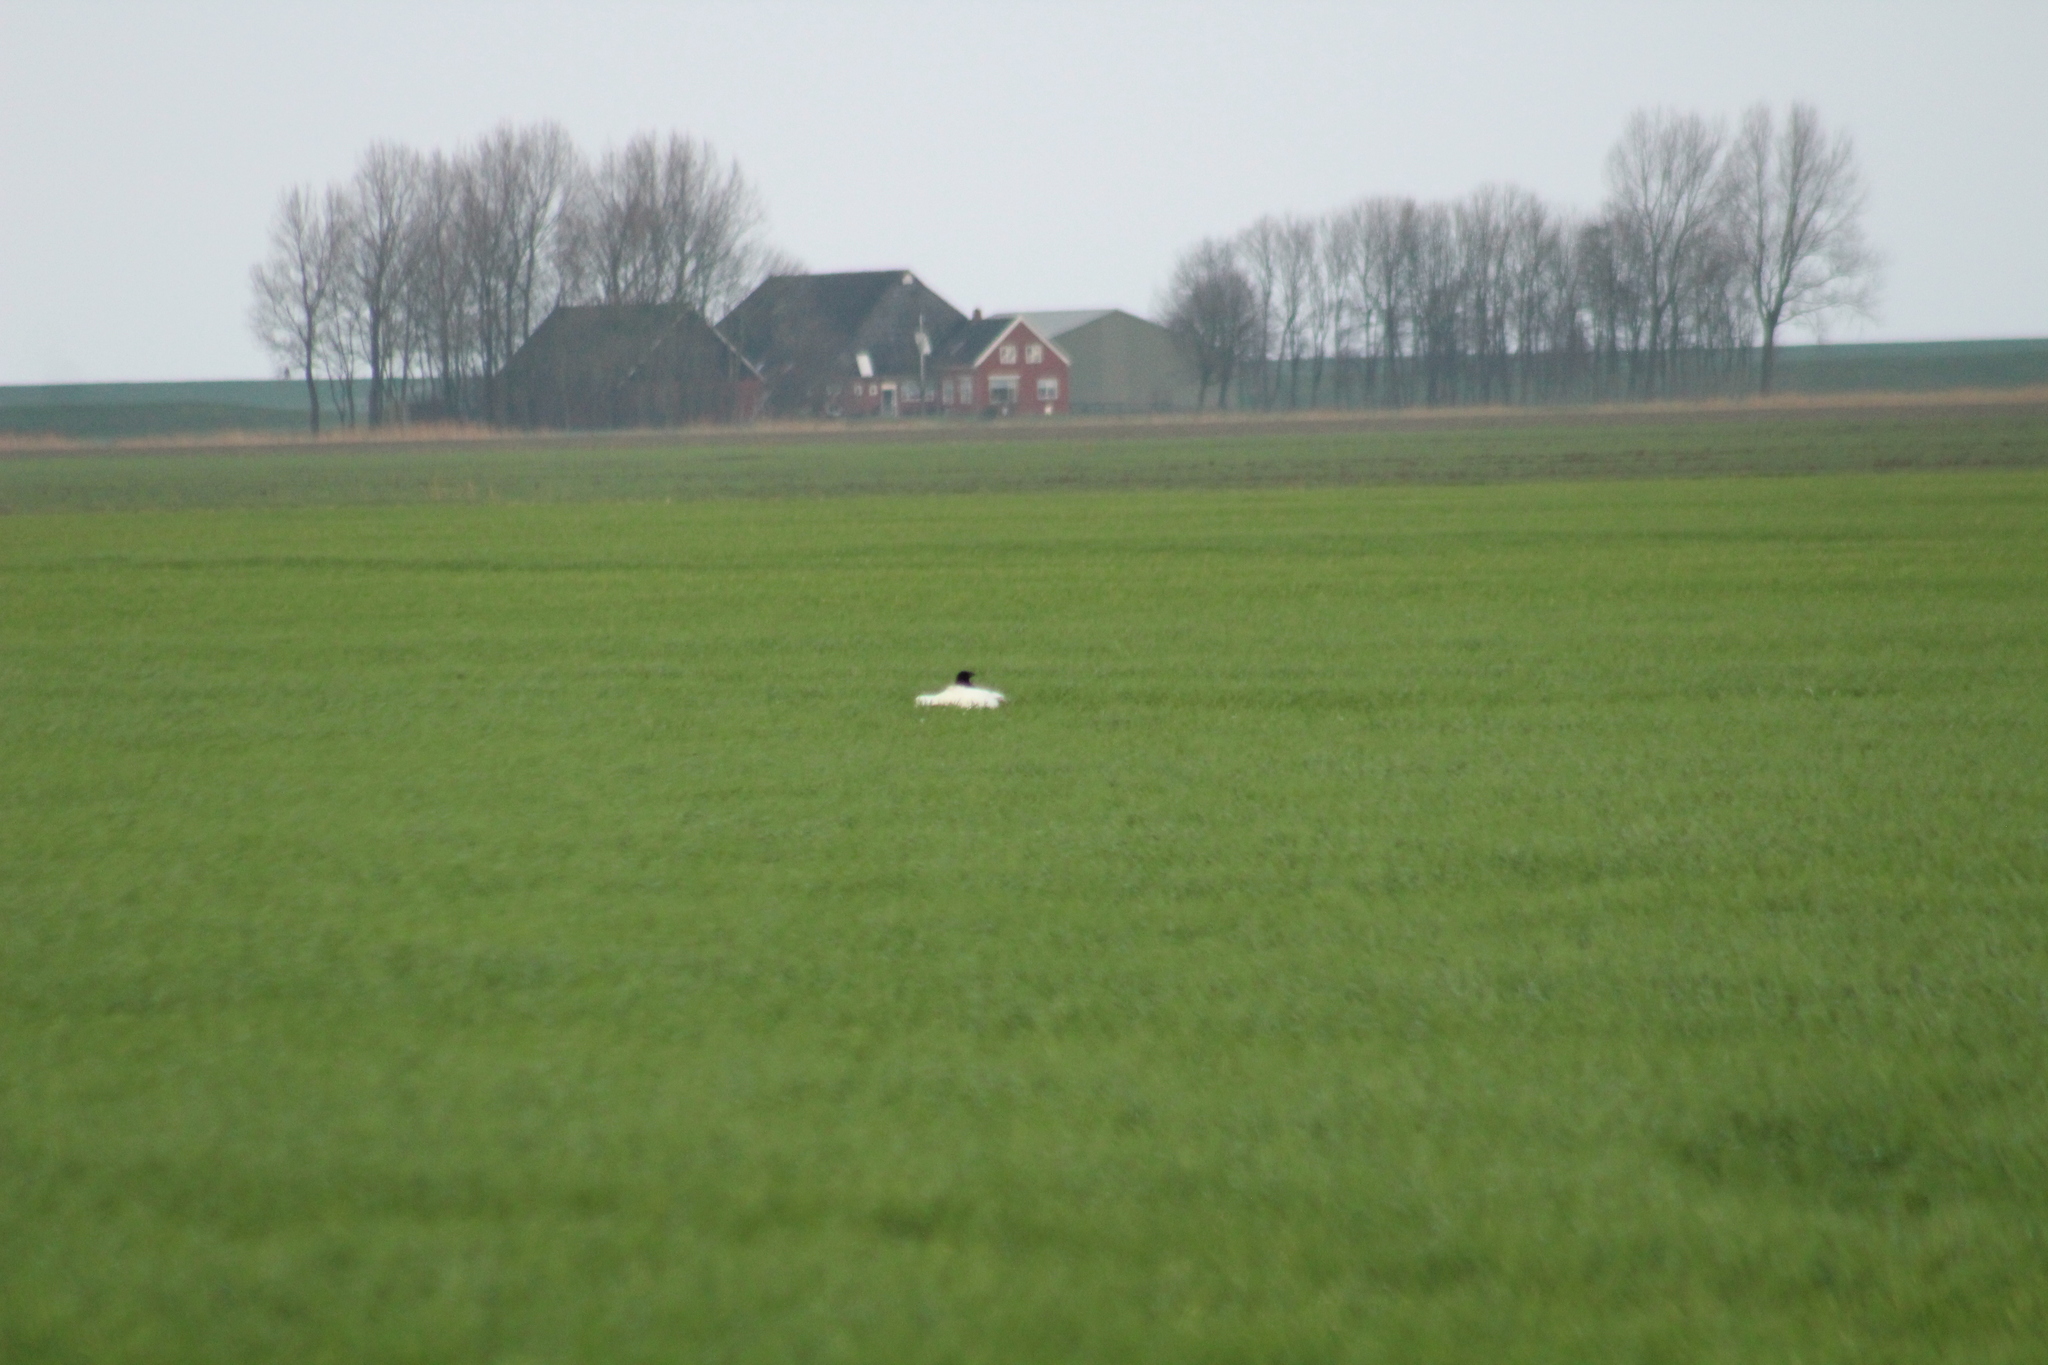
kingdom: Animalia
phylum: Chordata
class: Aves
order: Passeriformes
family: Corvidae
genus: Corvus
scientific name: Corvus corone
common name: Carrion crow
